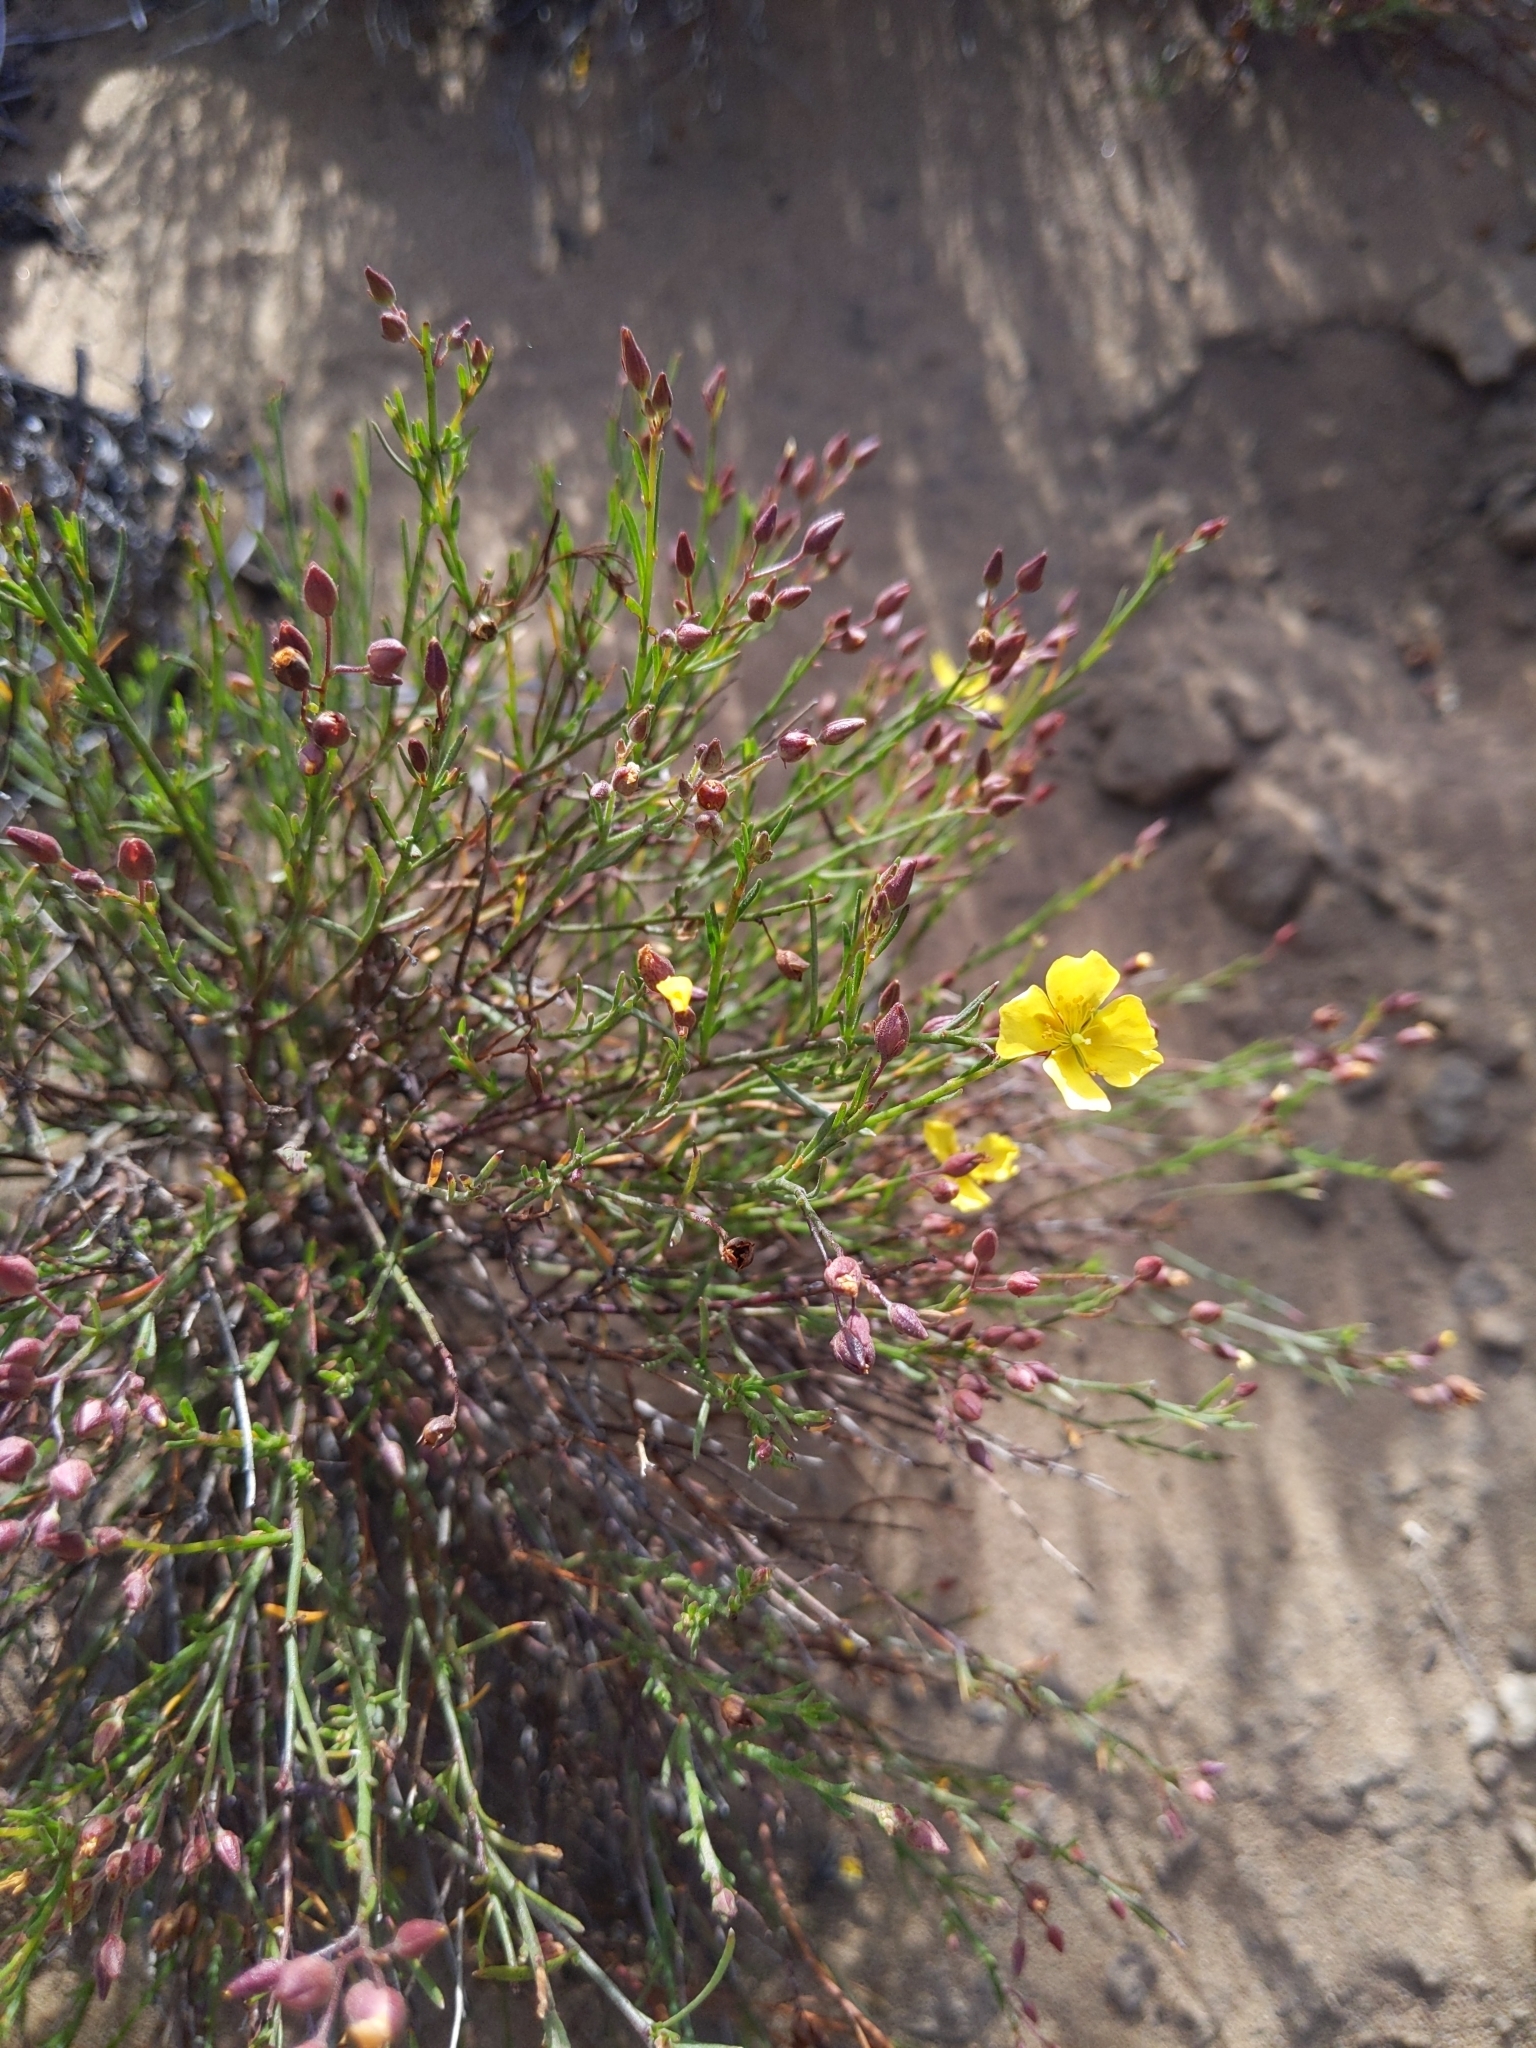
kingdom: Plantae
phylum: Tracheophyta
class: Magnoliopsida
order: Malvales
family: Cistaceae
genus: Crocanthemum
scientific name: Crocanthemum scoparium
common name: Broom-rose
